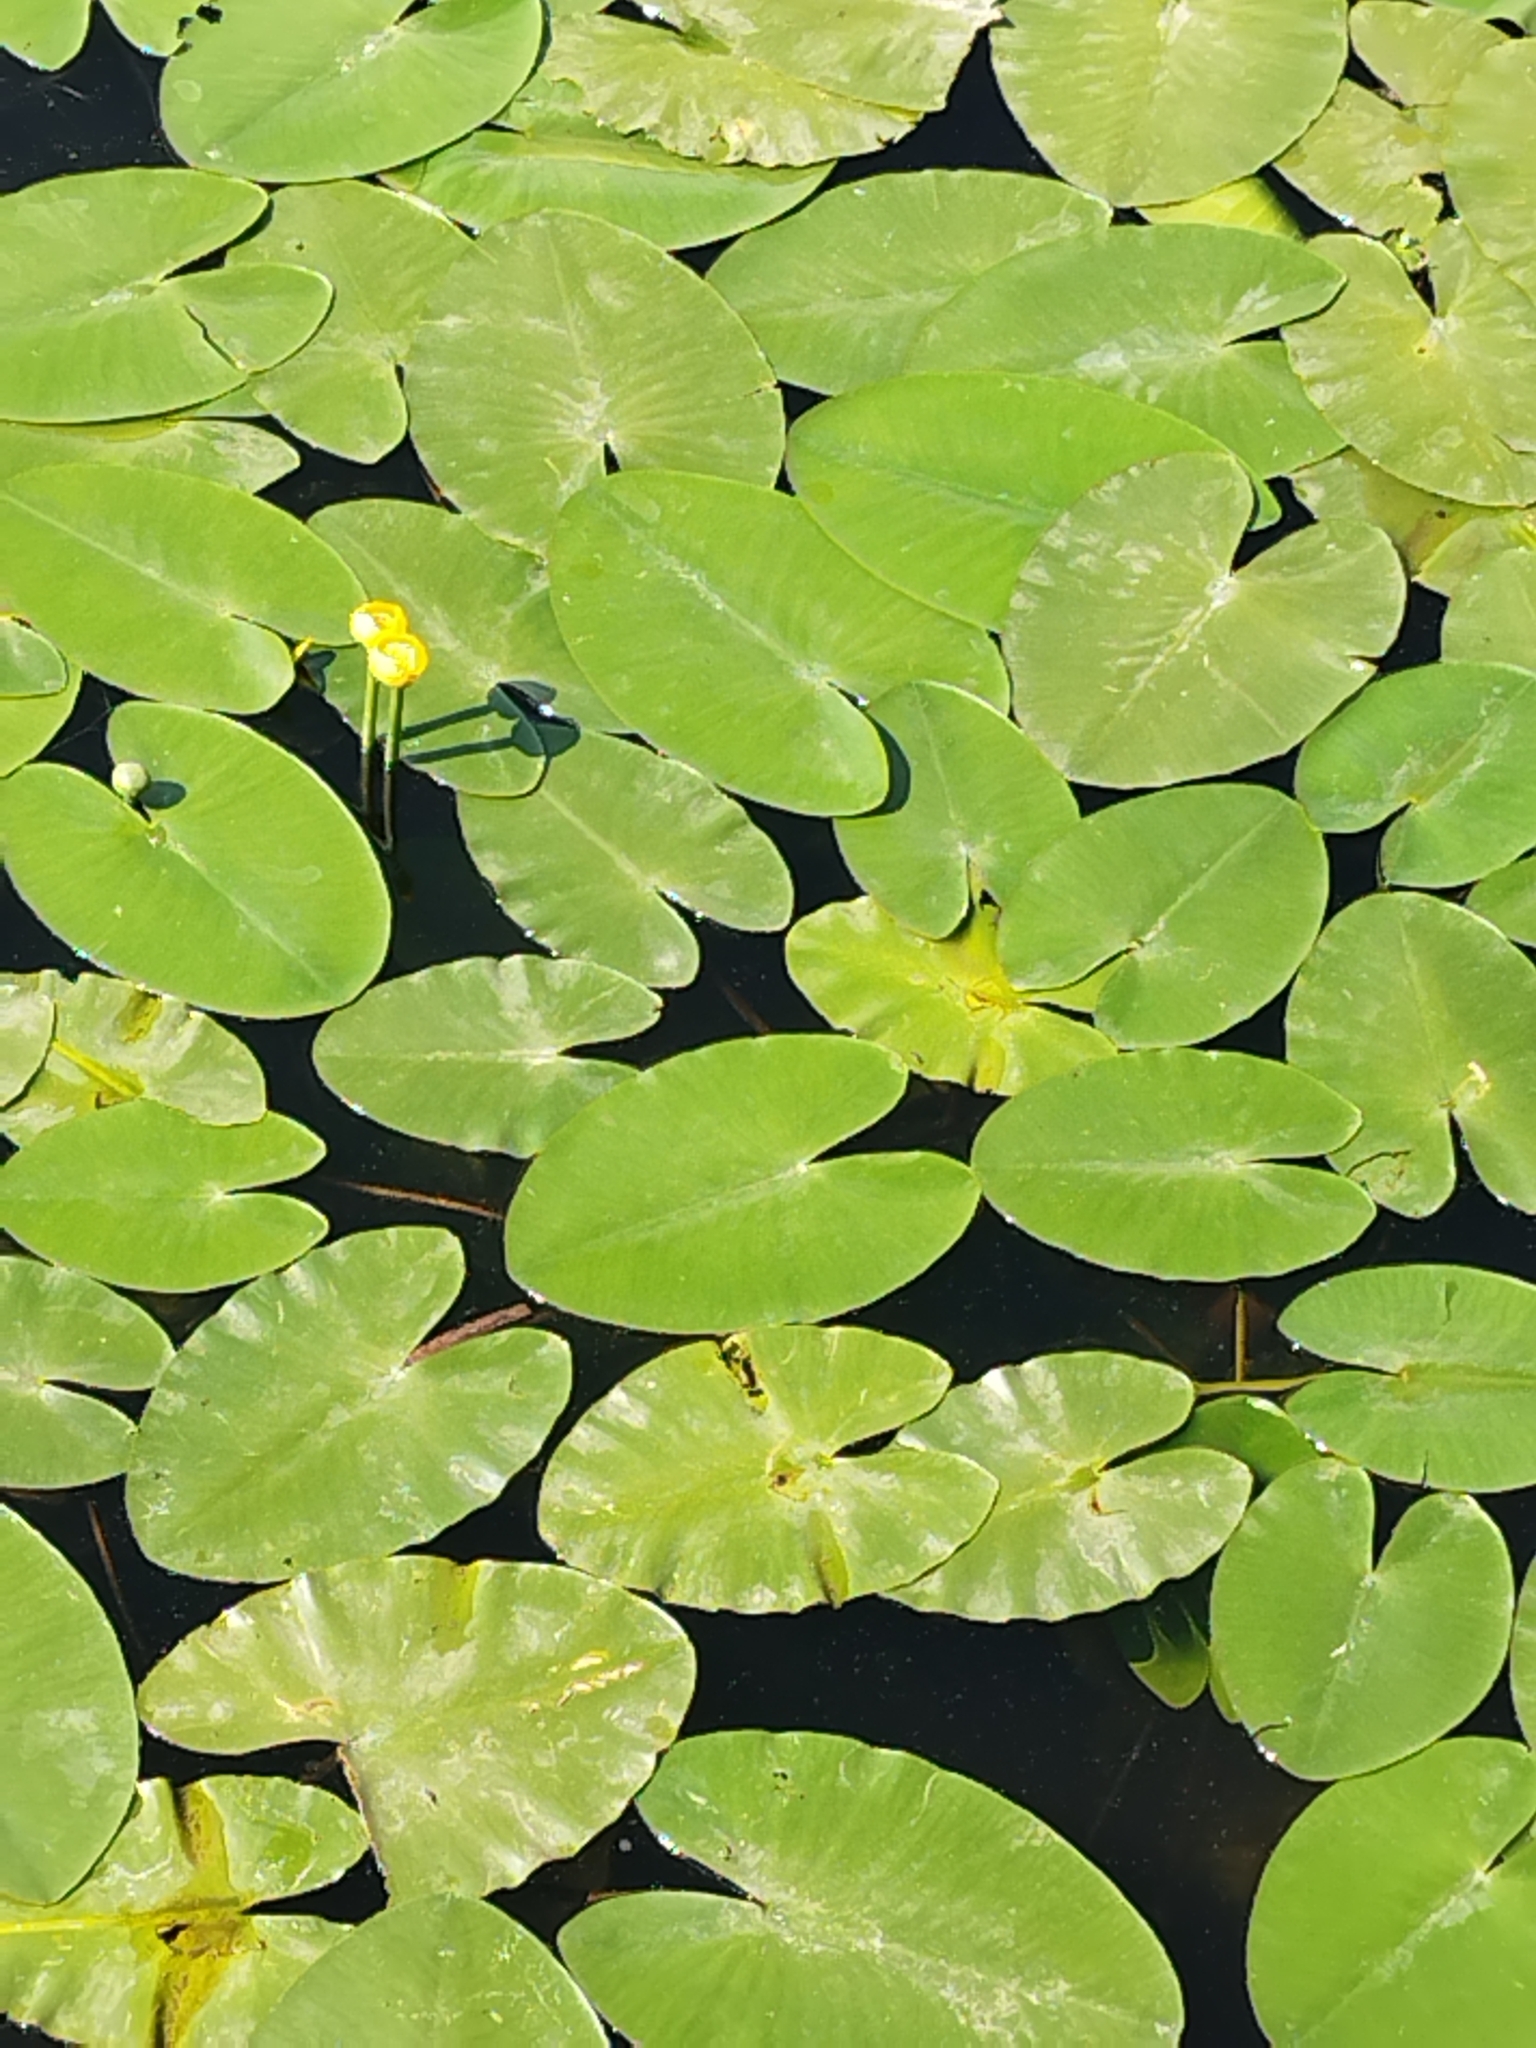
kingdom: Plantae
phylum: Tracheophyta
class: Magnoliopsida
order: Nymphaeales
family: Nymphaeaceae
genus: Nuphar
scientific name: Nuphar lutea
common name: Yellow water-lily
